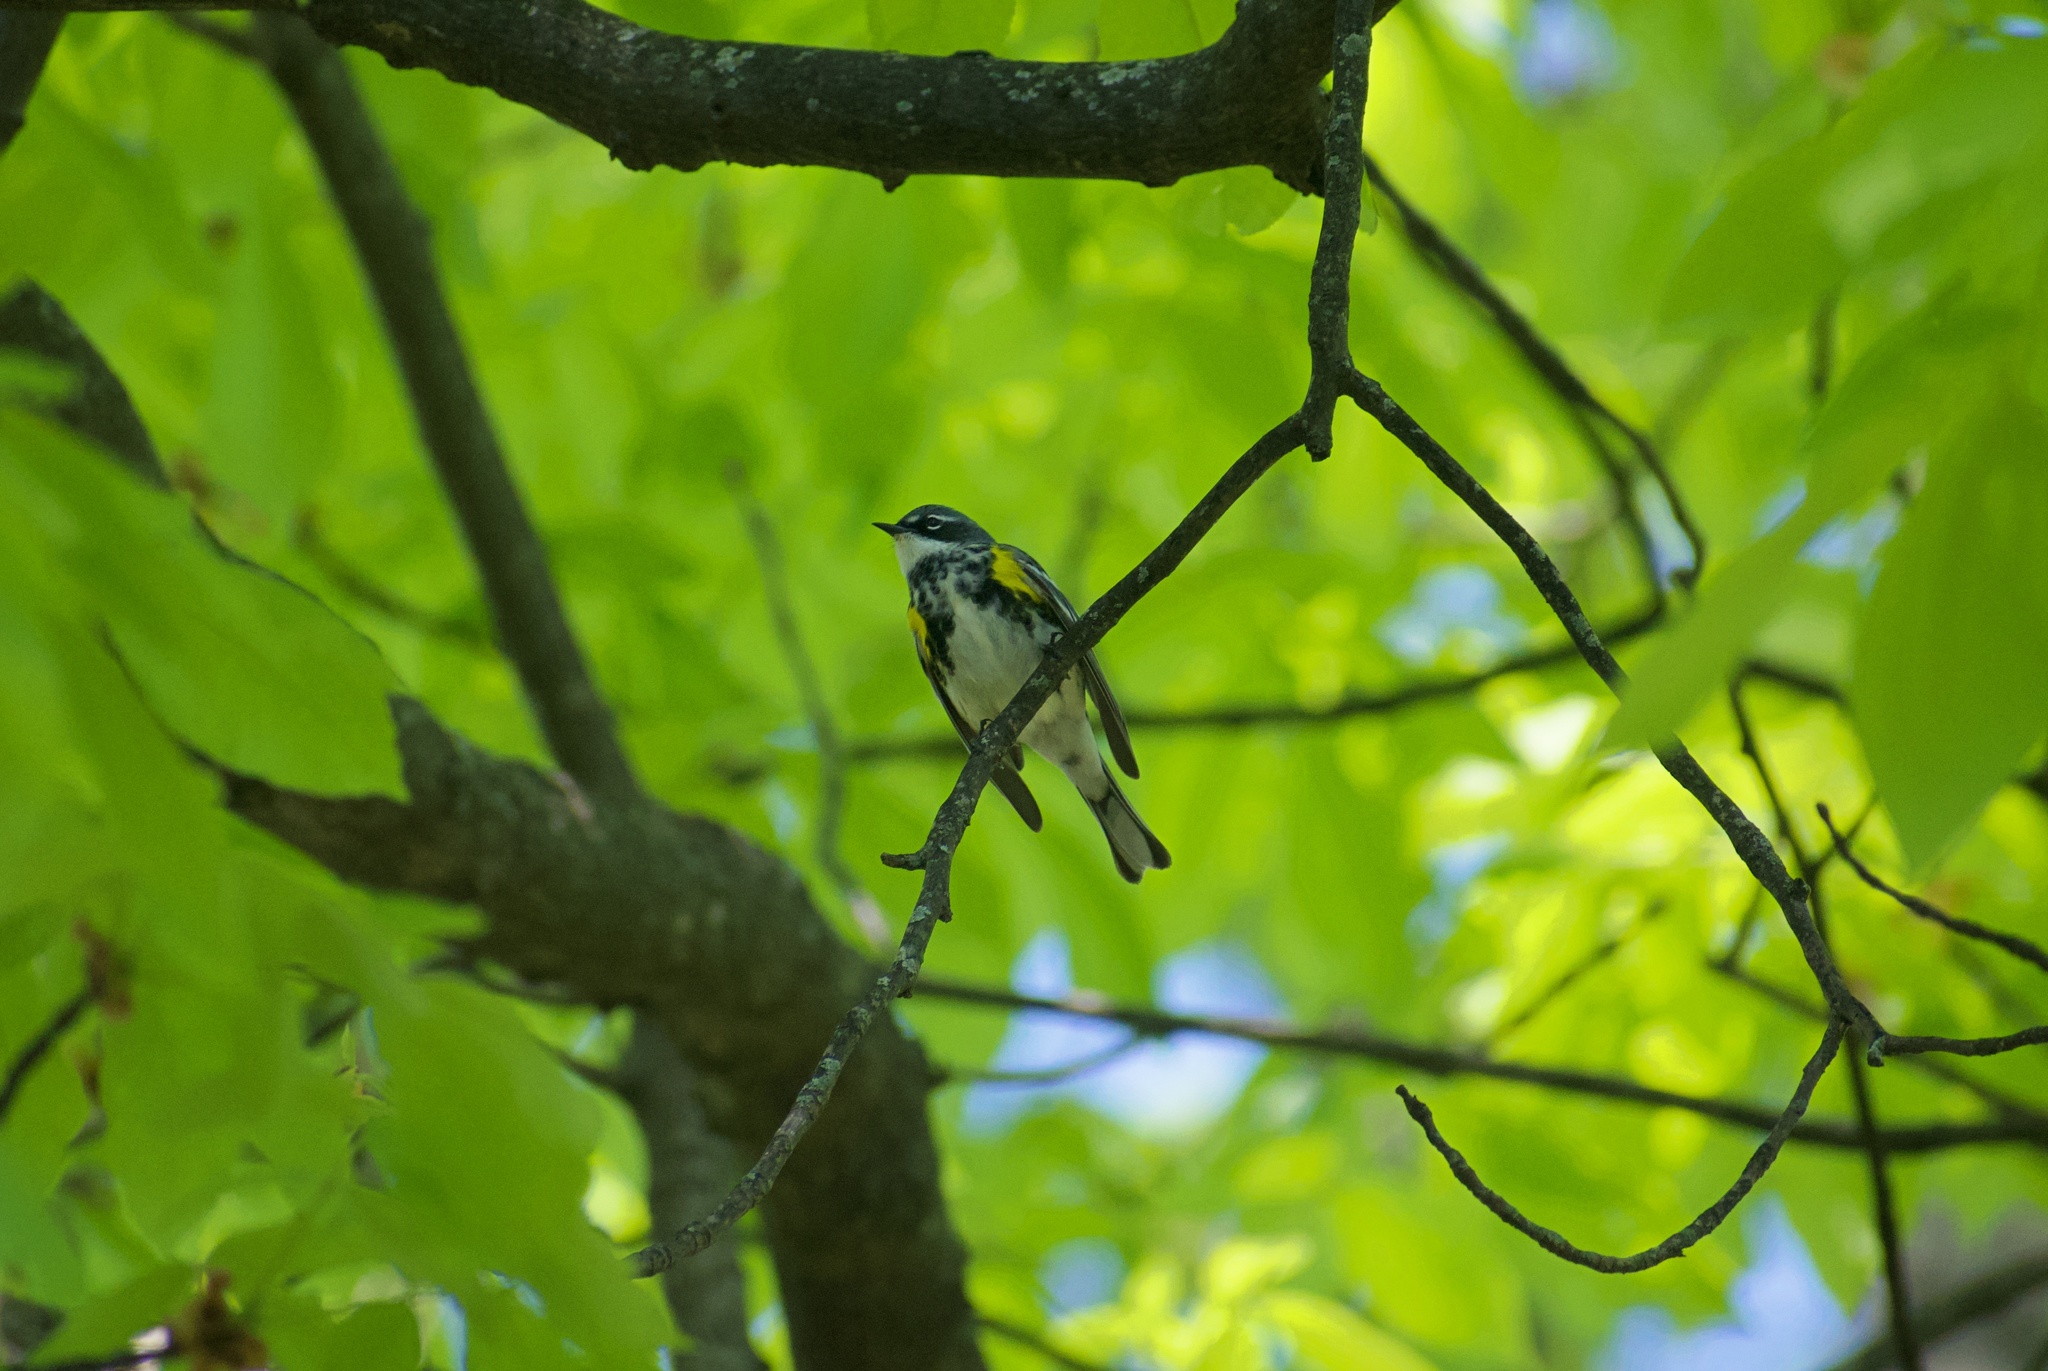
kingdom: Animalia
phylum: Chordata
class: Aves
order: Passeriformes
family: Parulidae
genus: Setophaga
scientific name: Setophaga coronata
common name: Myrtle warbler
